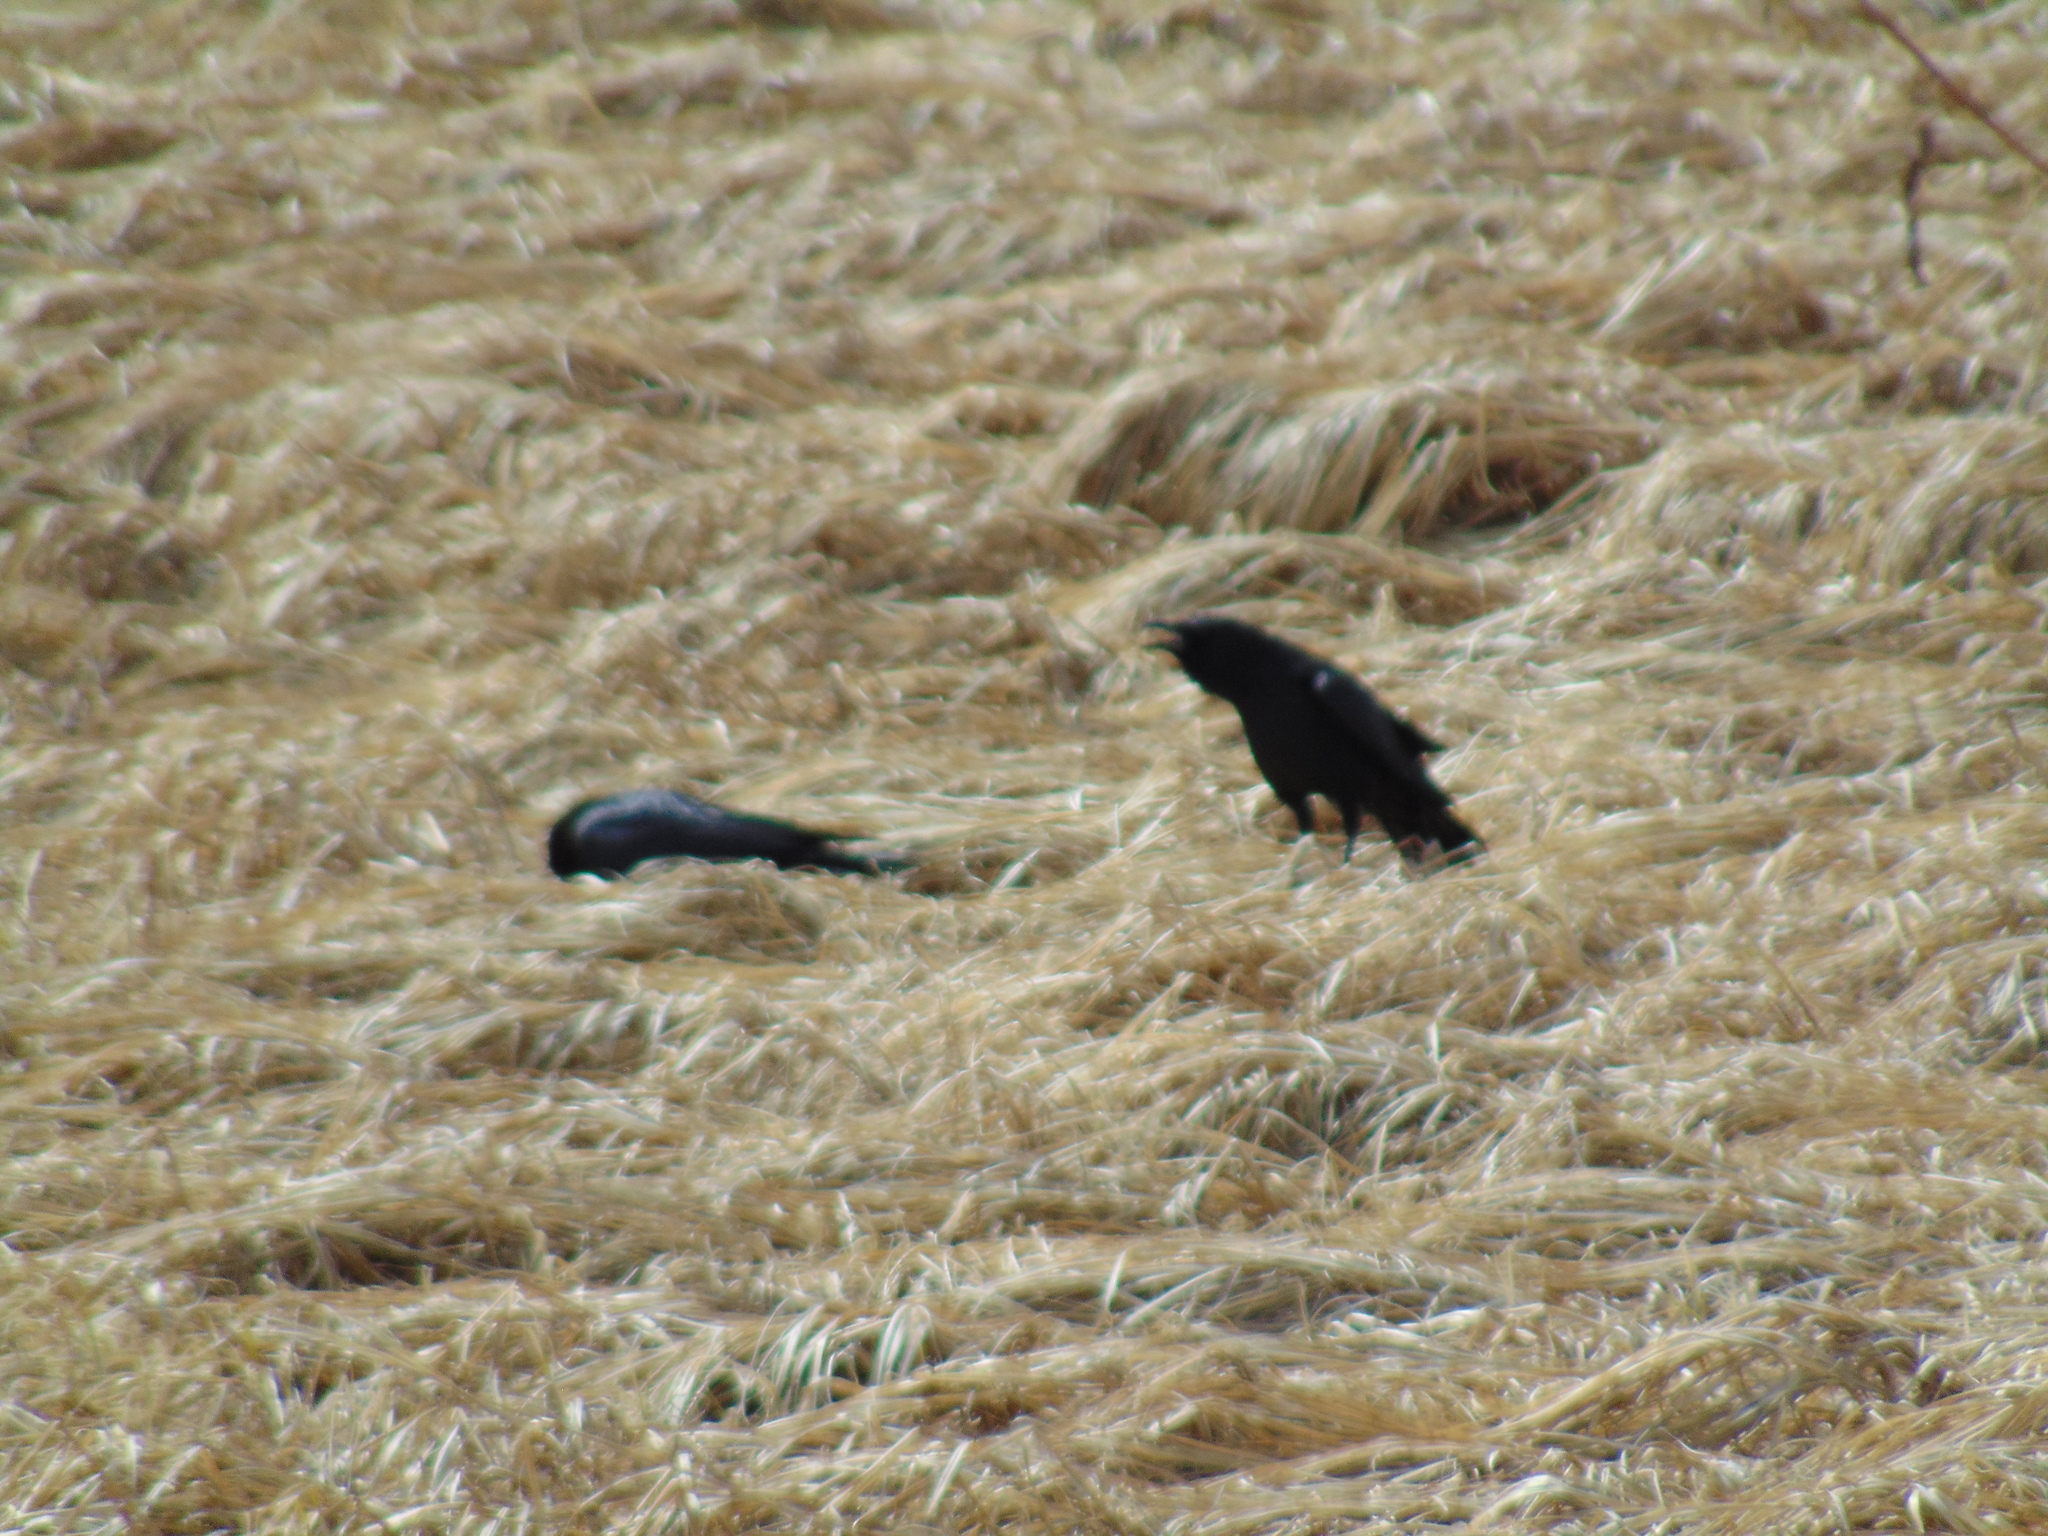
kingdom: Animalia
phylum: Chordata
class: Aves
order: Passeriformes
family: Corvidae
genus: Corvus
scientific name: Corvus brachyrhynchos
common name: American crow
